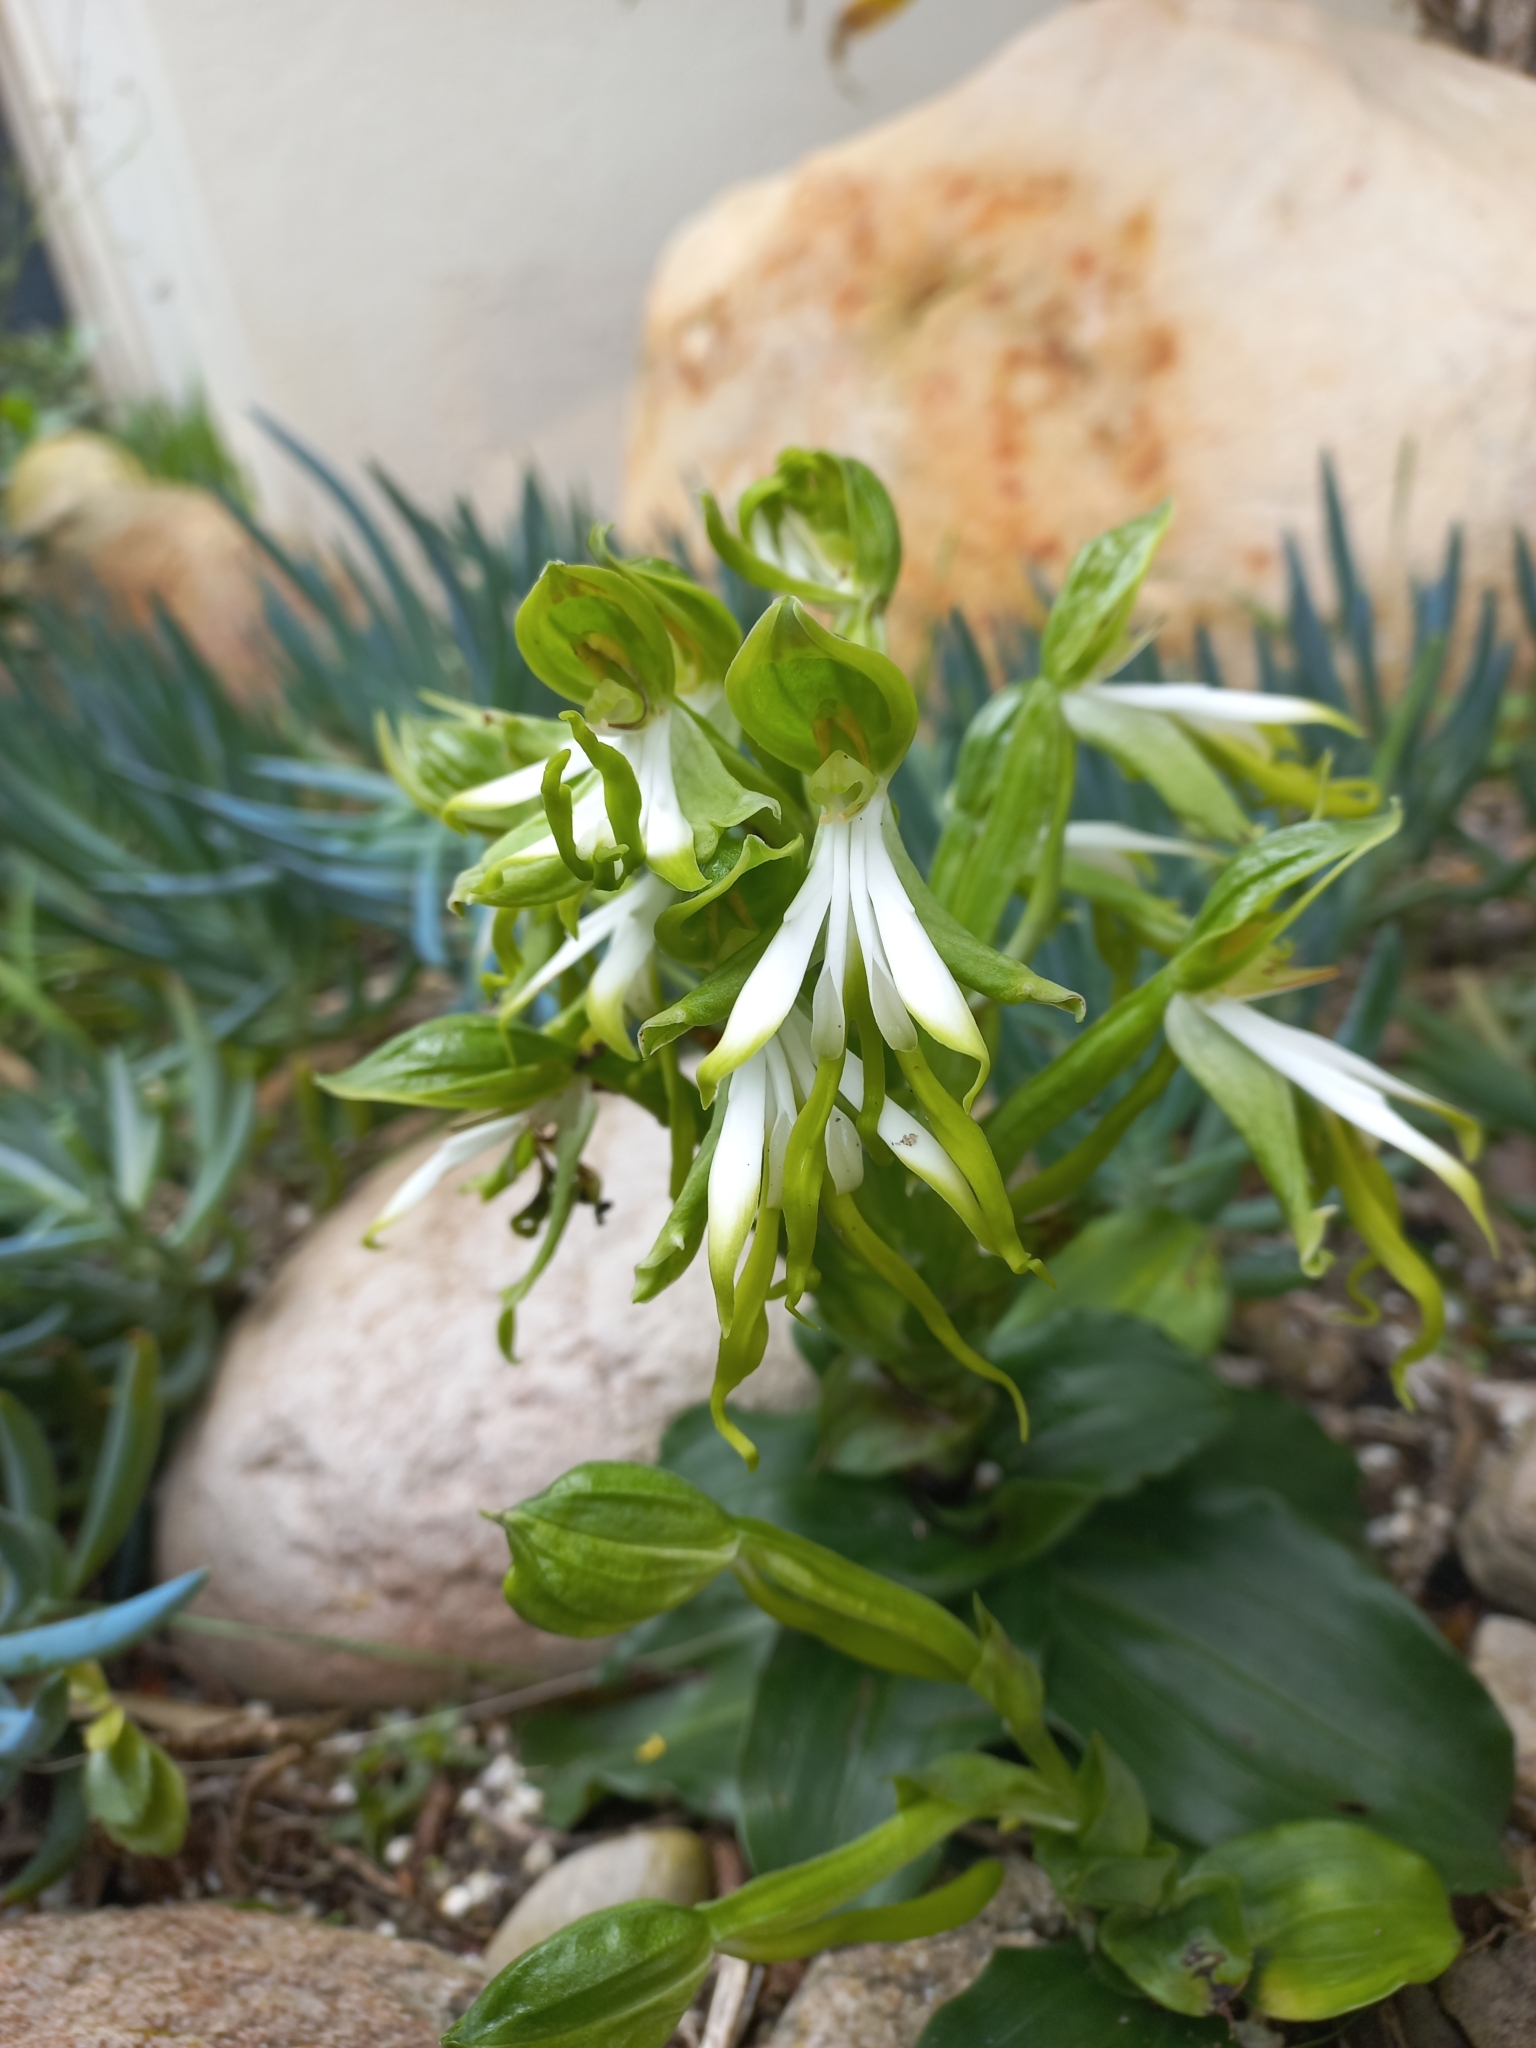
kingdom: Plantae
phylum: Tracheophyta
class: Liliopsida
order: Asparagales
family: Orchidaceae
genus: Bonatea
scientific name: Bonatea speciosa
